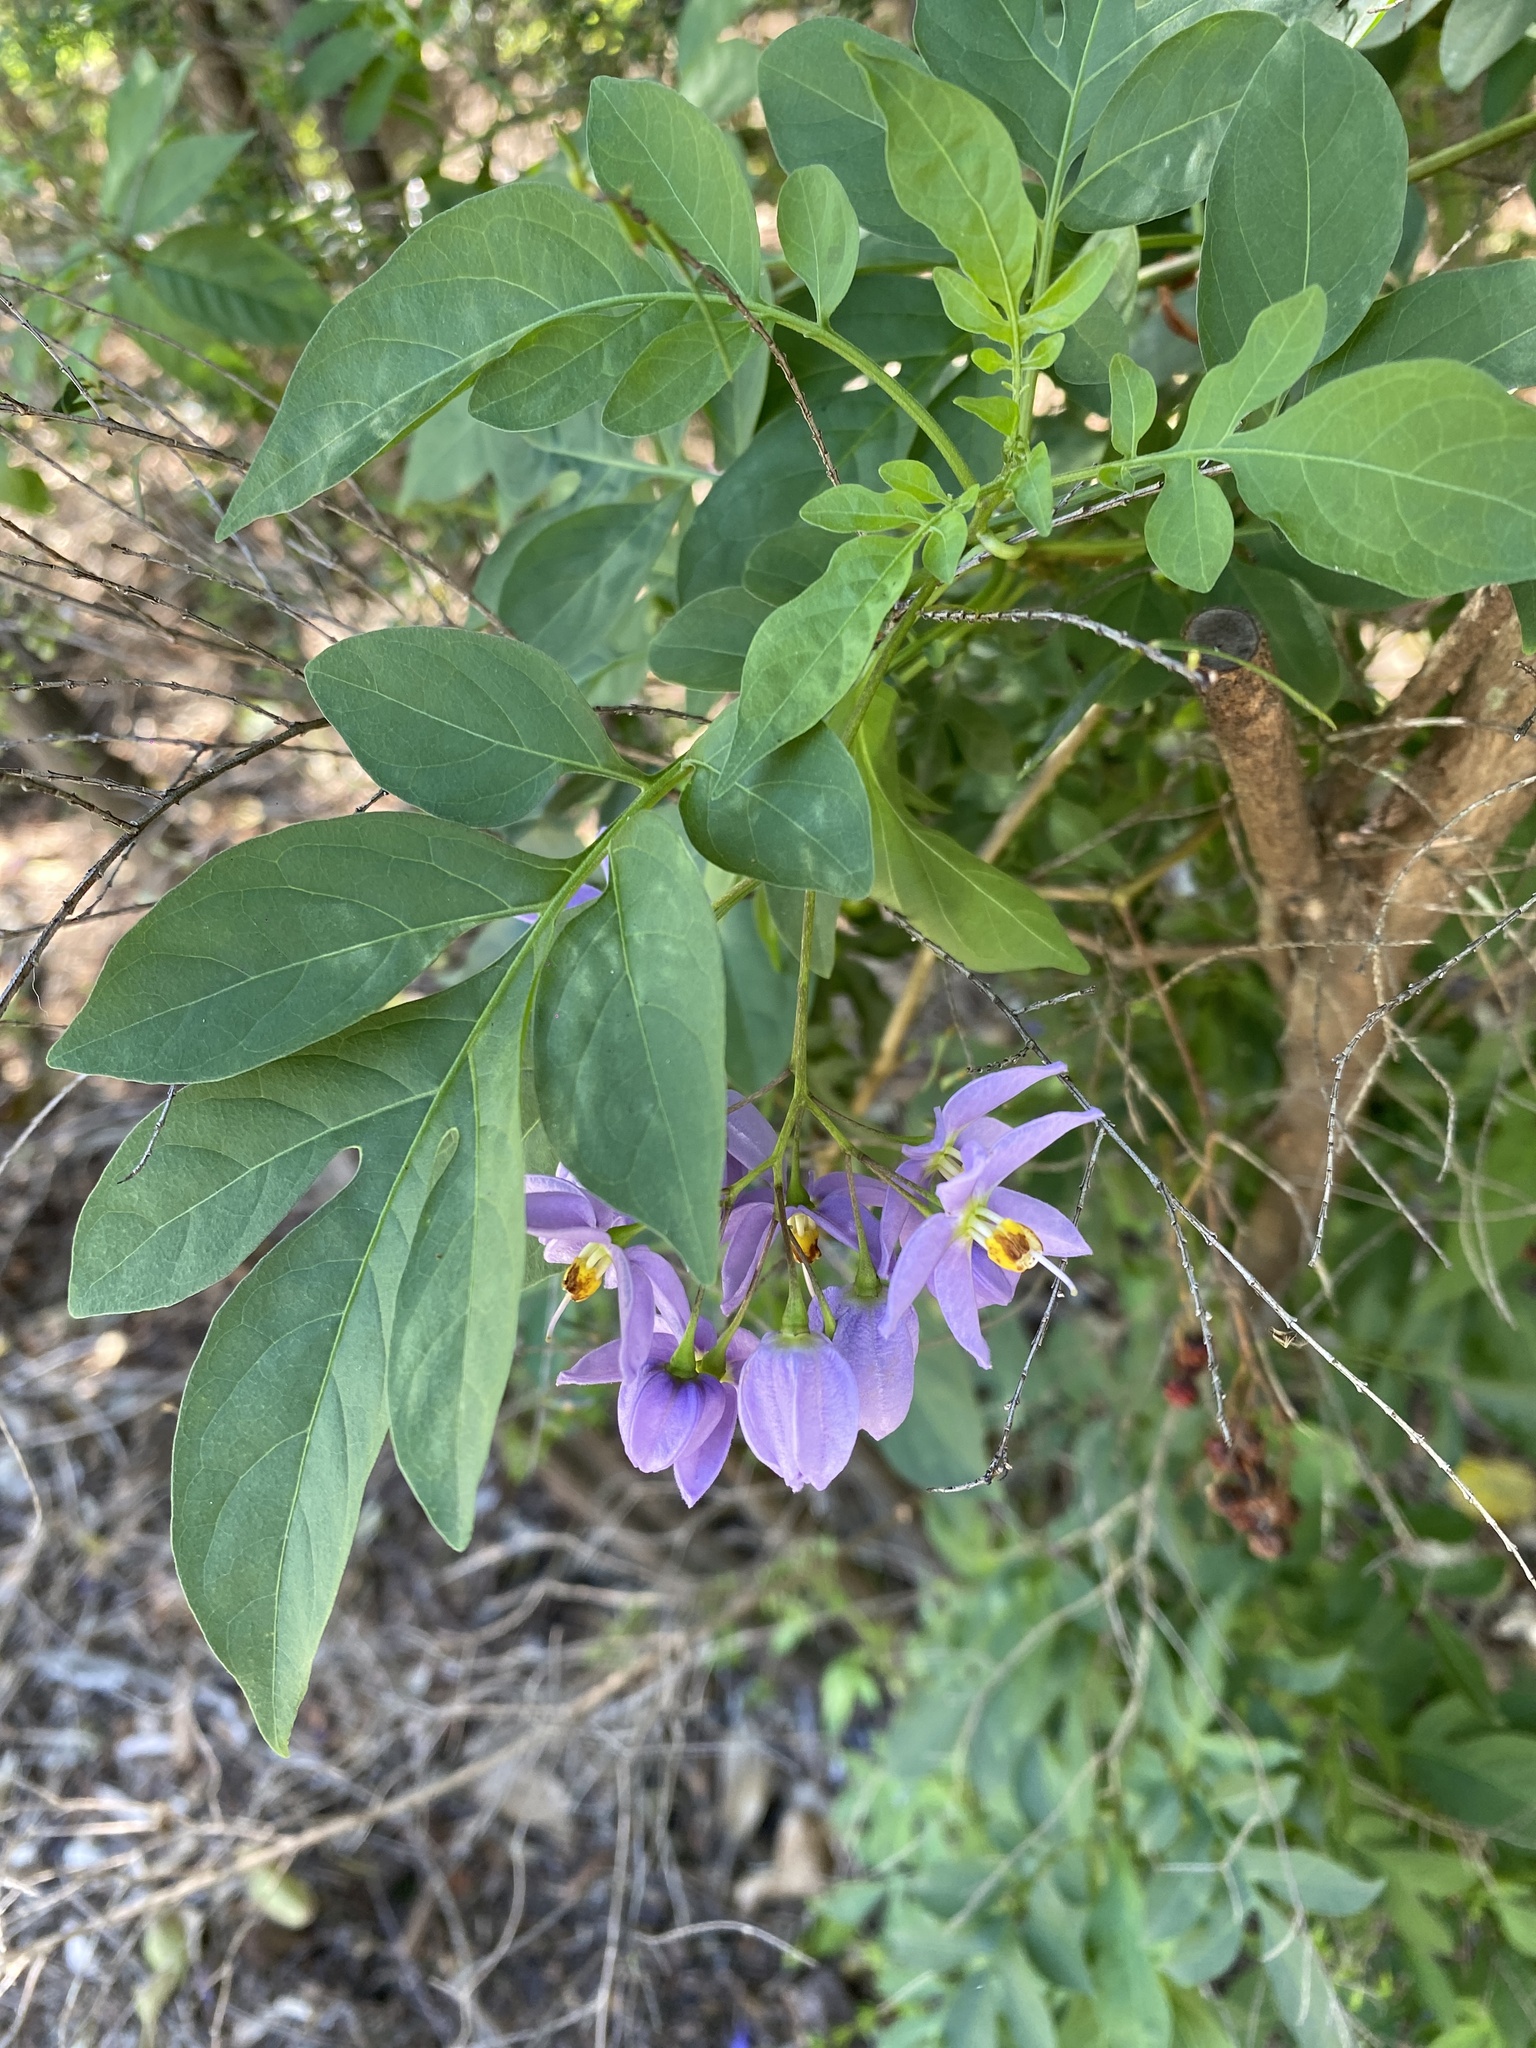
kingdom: Plantae
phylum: Tracheophyta
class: Magnoliopsida
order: Solanales
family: Solanaceae
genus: Solanum
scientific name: Solanum seaforthianum
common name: Brazilian nightshade
